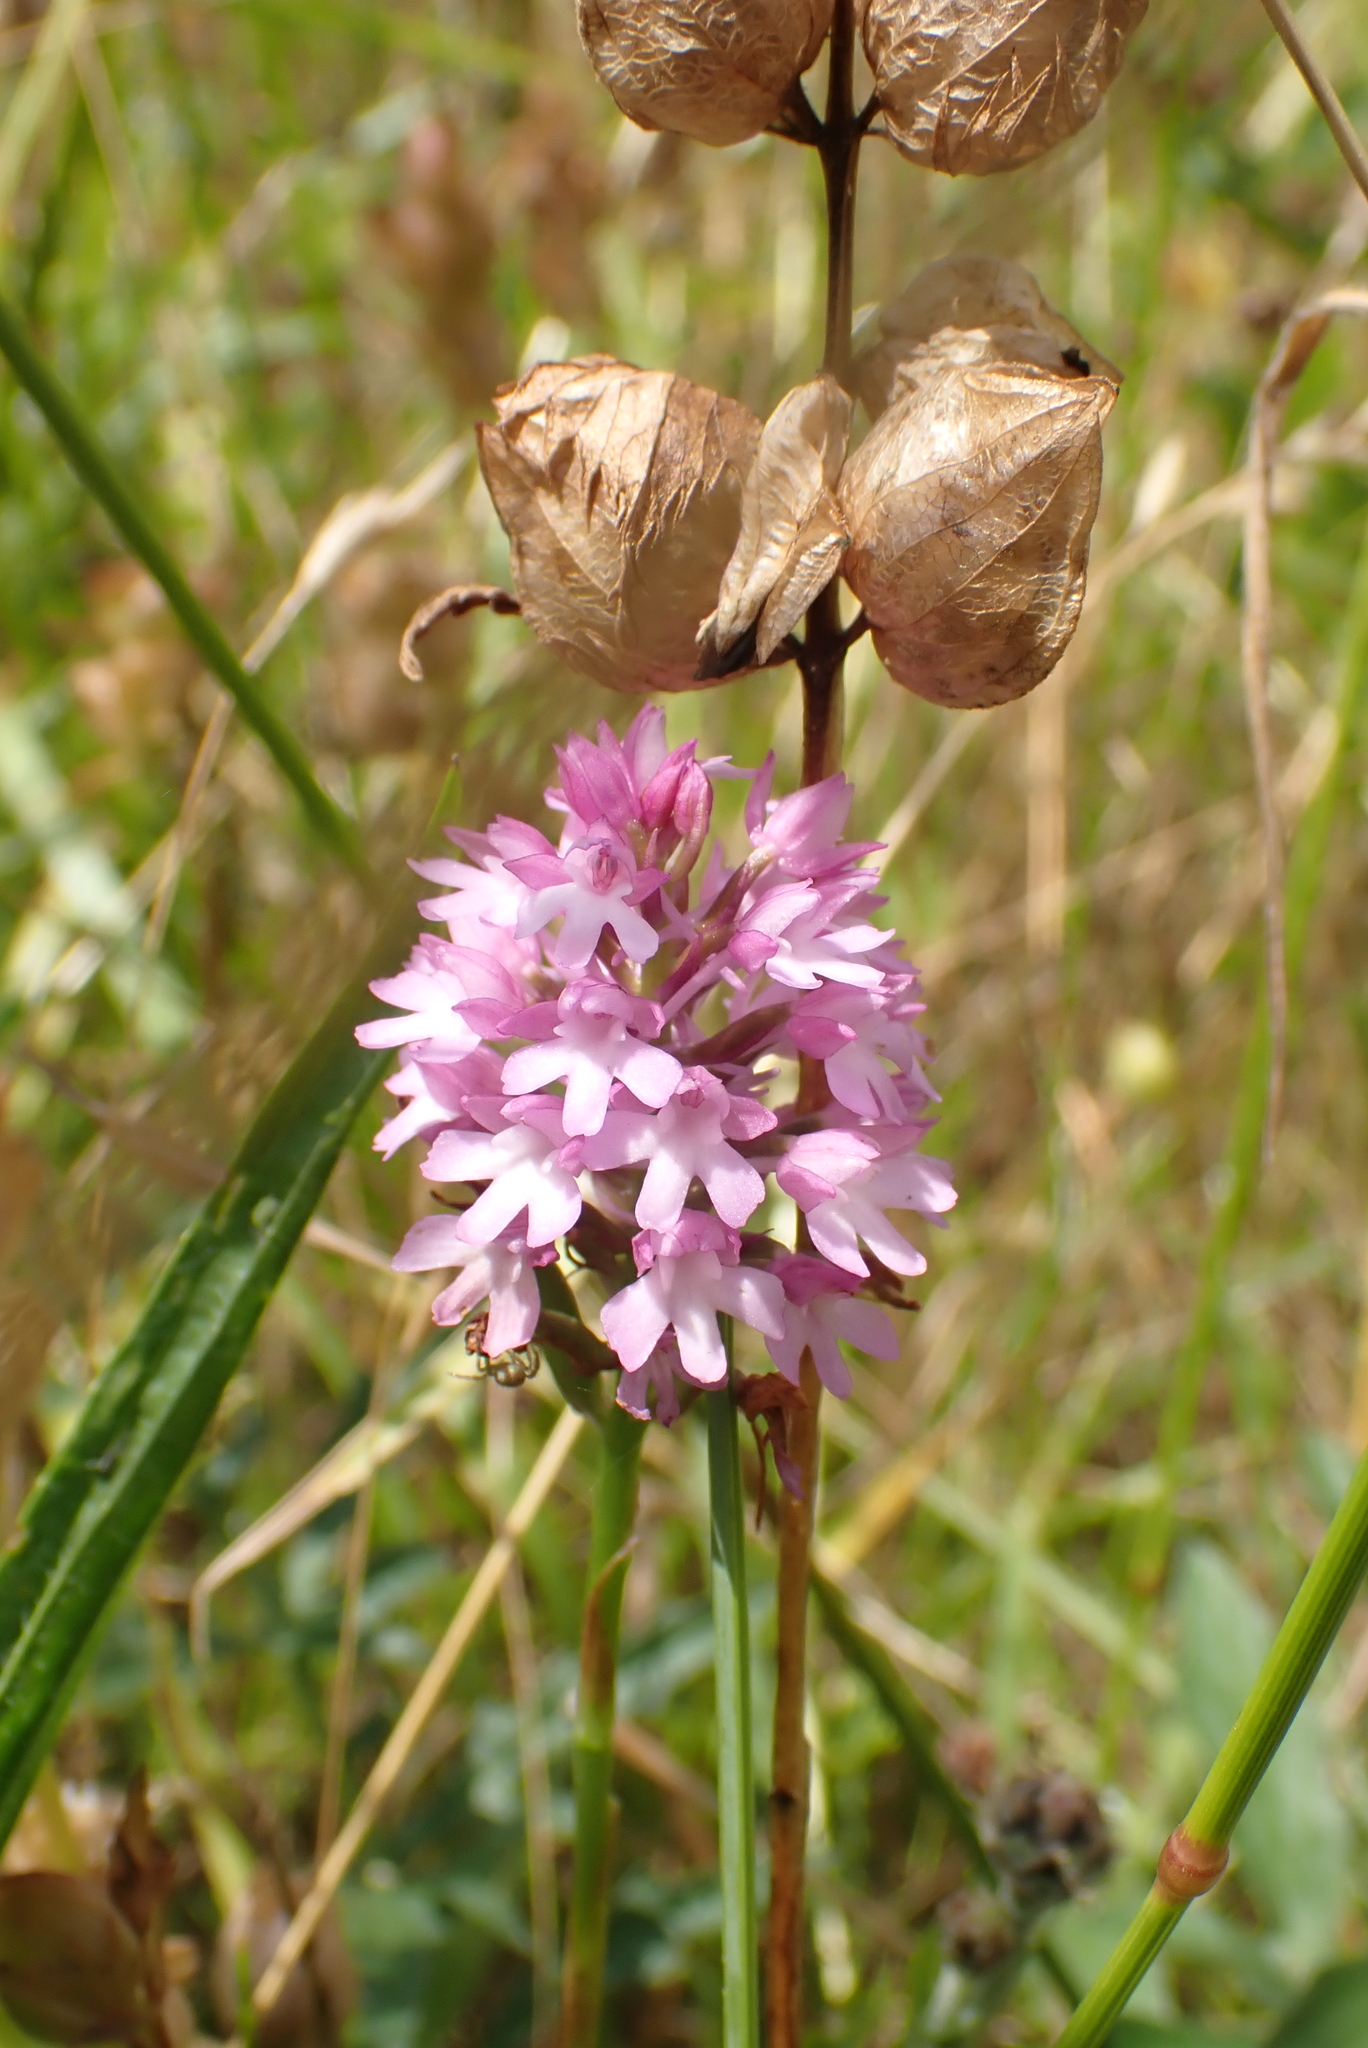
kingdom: Plantae
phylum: Tracheophyta
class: Liliopsida
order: Asparagales
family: Orchidaceae
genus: Anacamptis
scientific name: Anacamptis pyramidalis
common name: Pyramidal orchid
